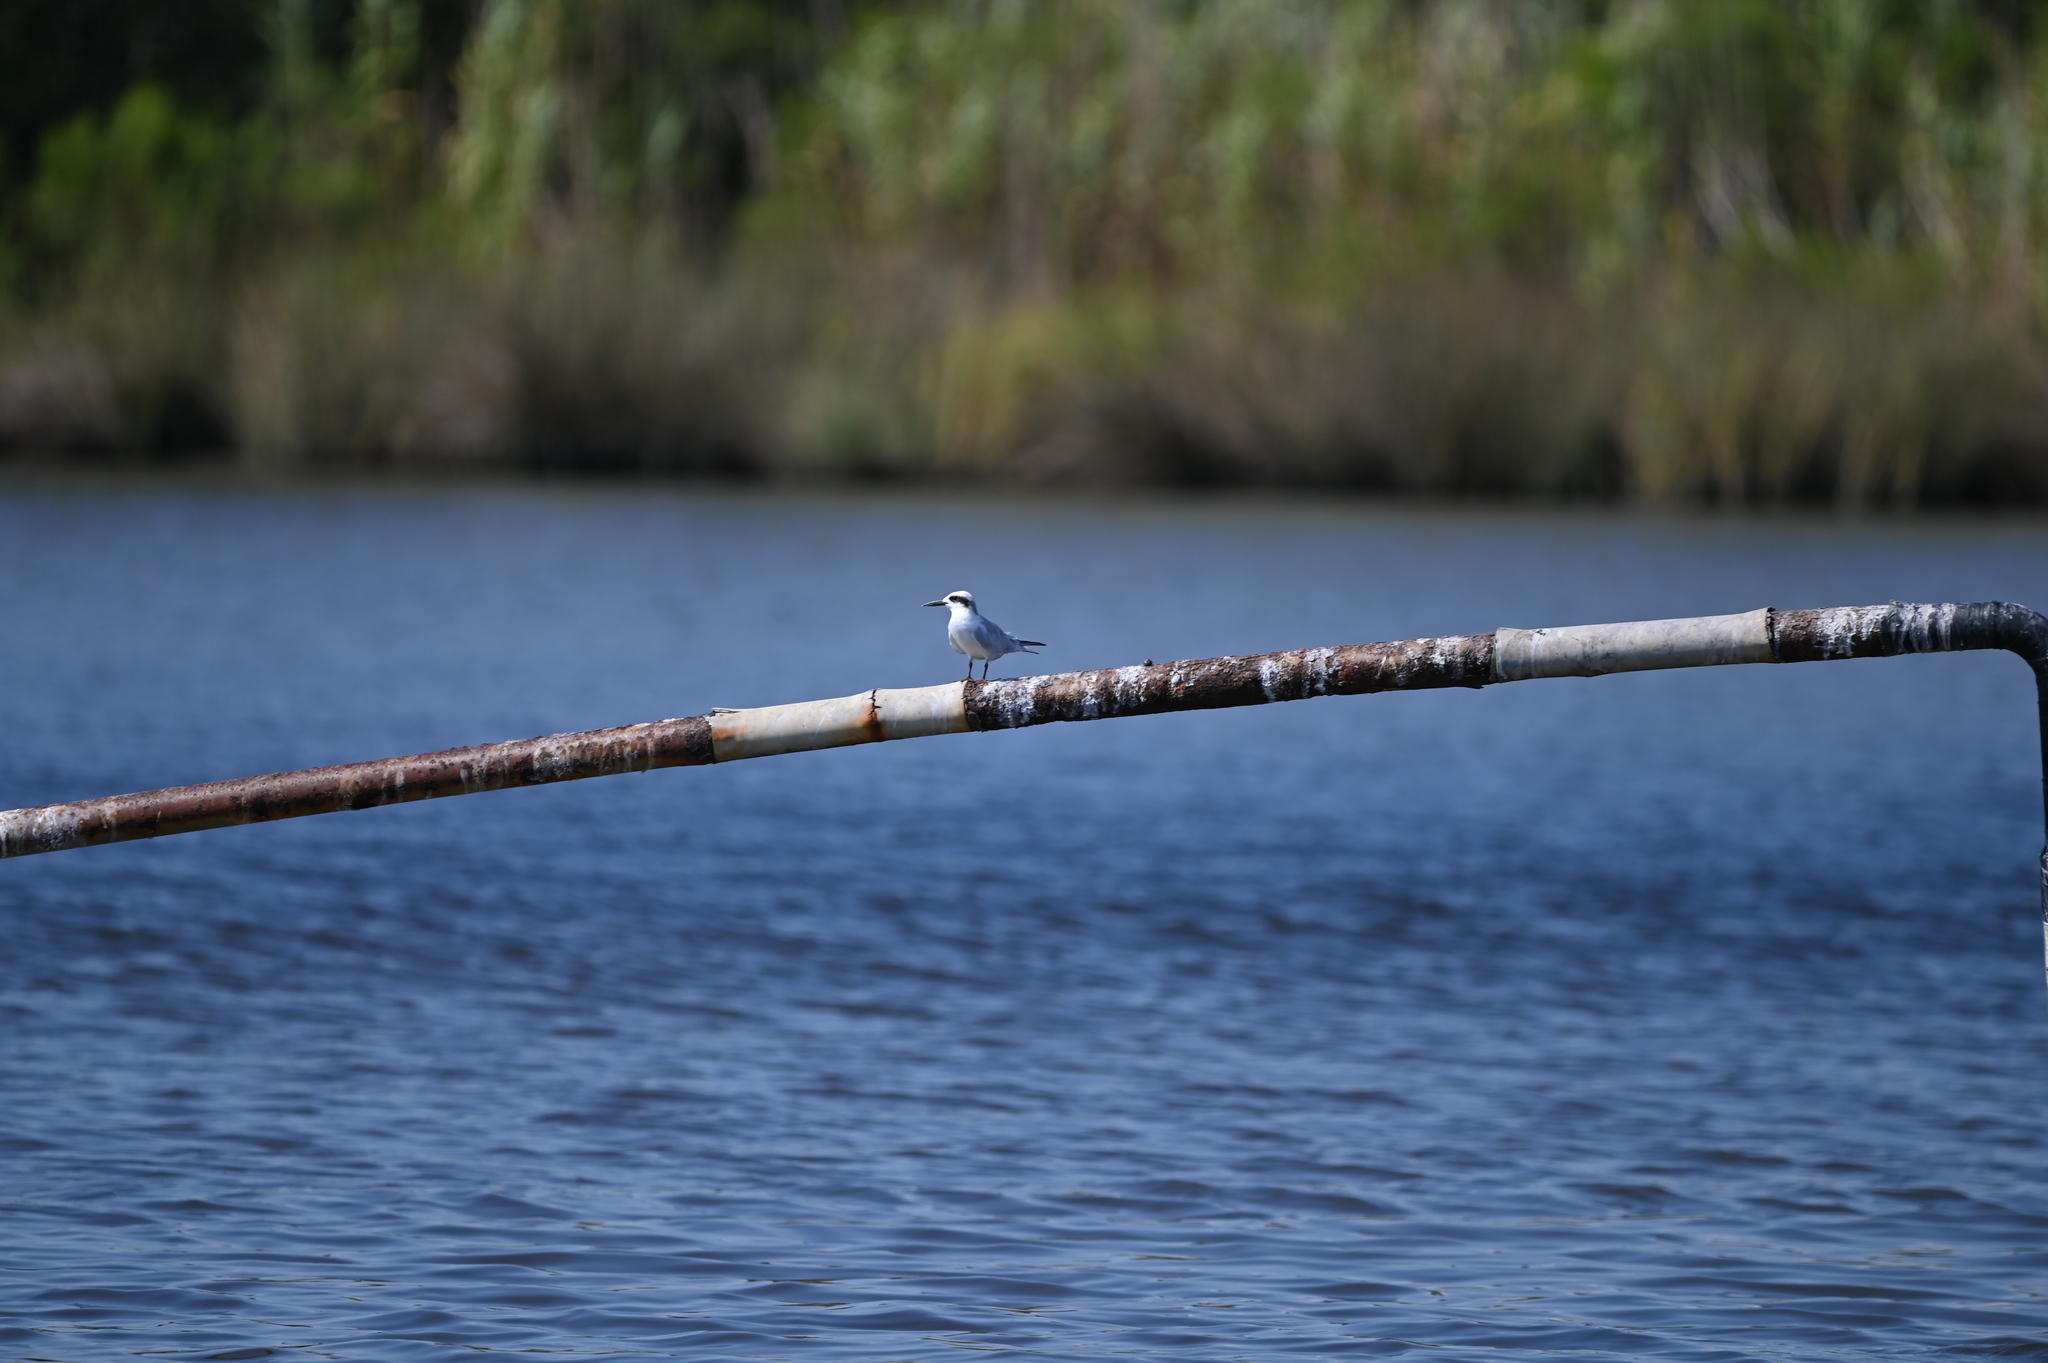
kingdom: Animalia
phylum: Chordata
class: Aves
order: Charadriiformes
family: Laridae
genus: Sterna
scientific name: Sterna forsteri
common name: Forster's tern
